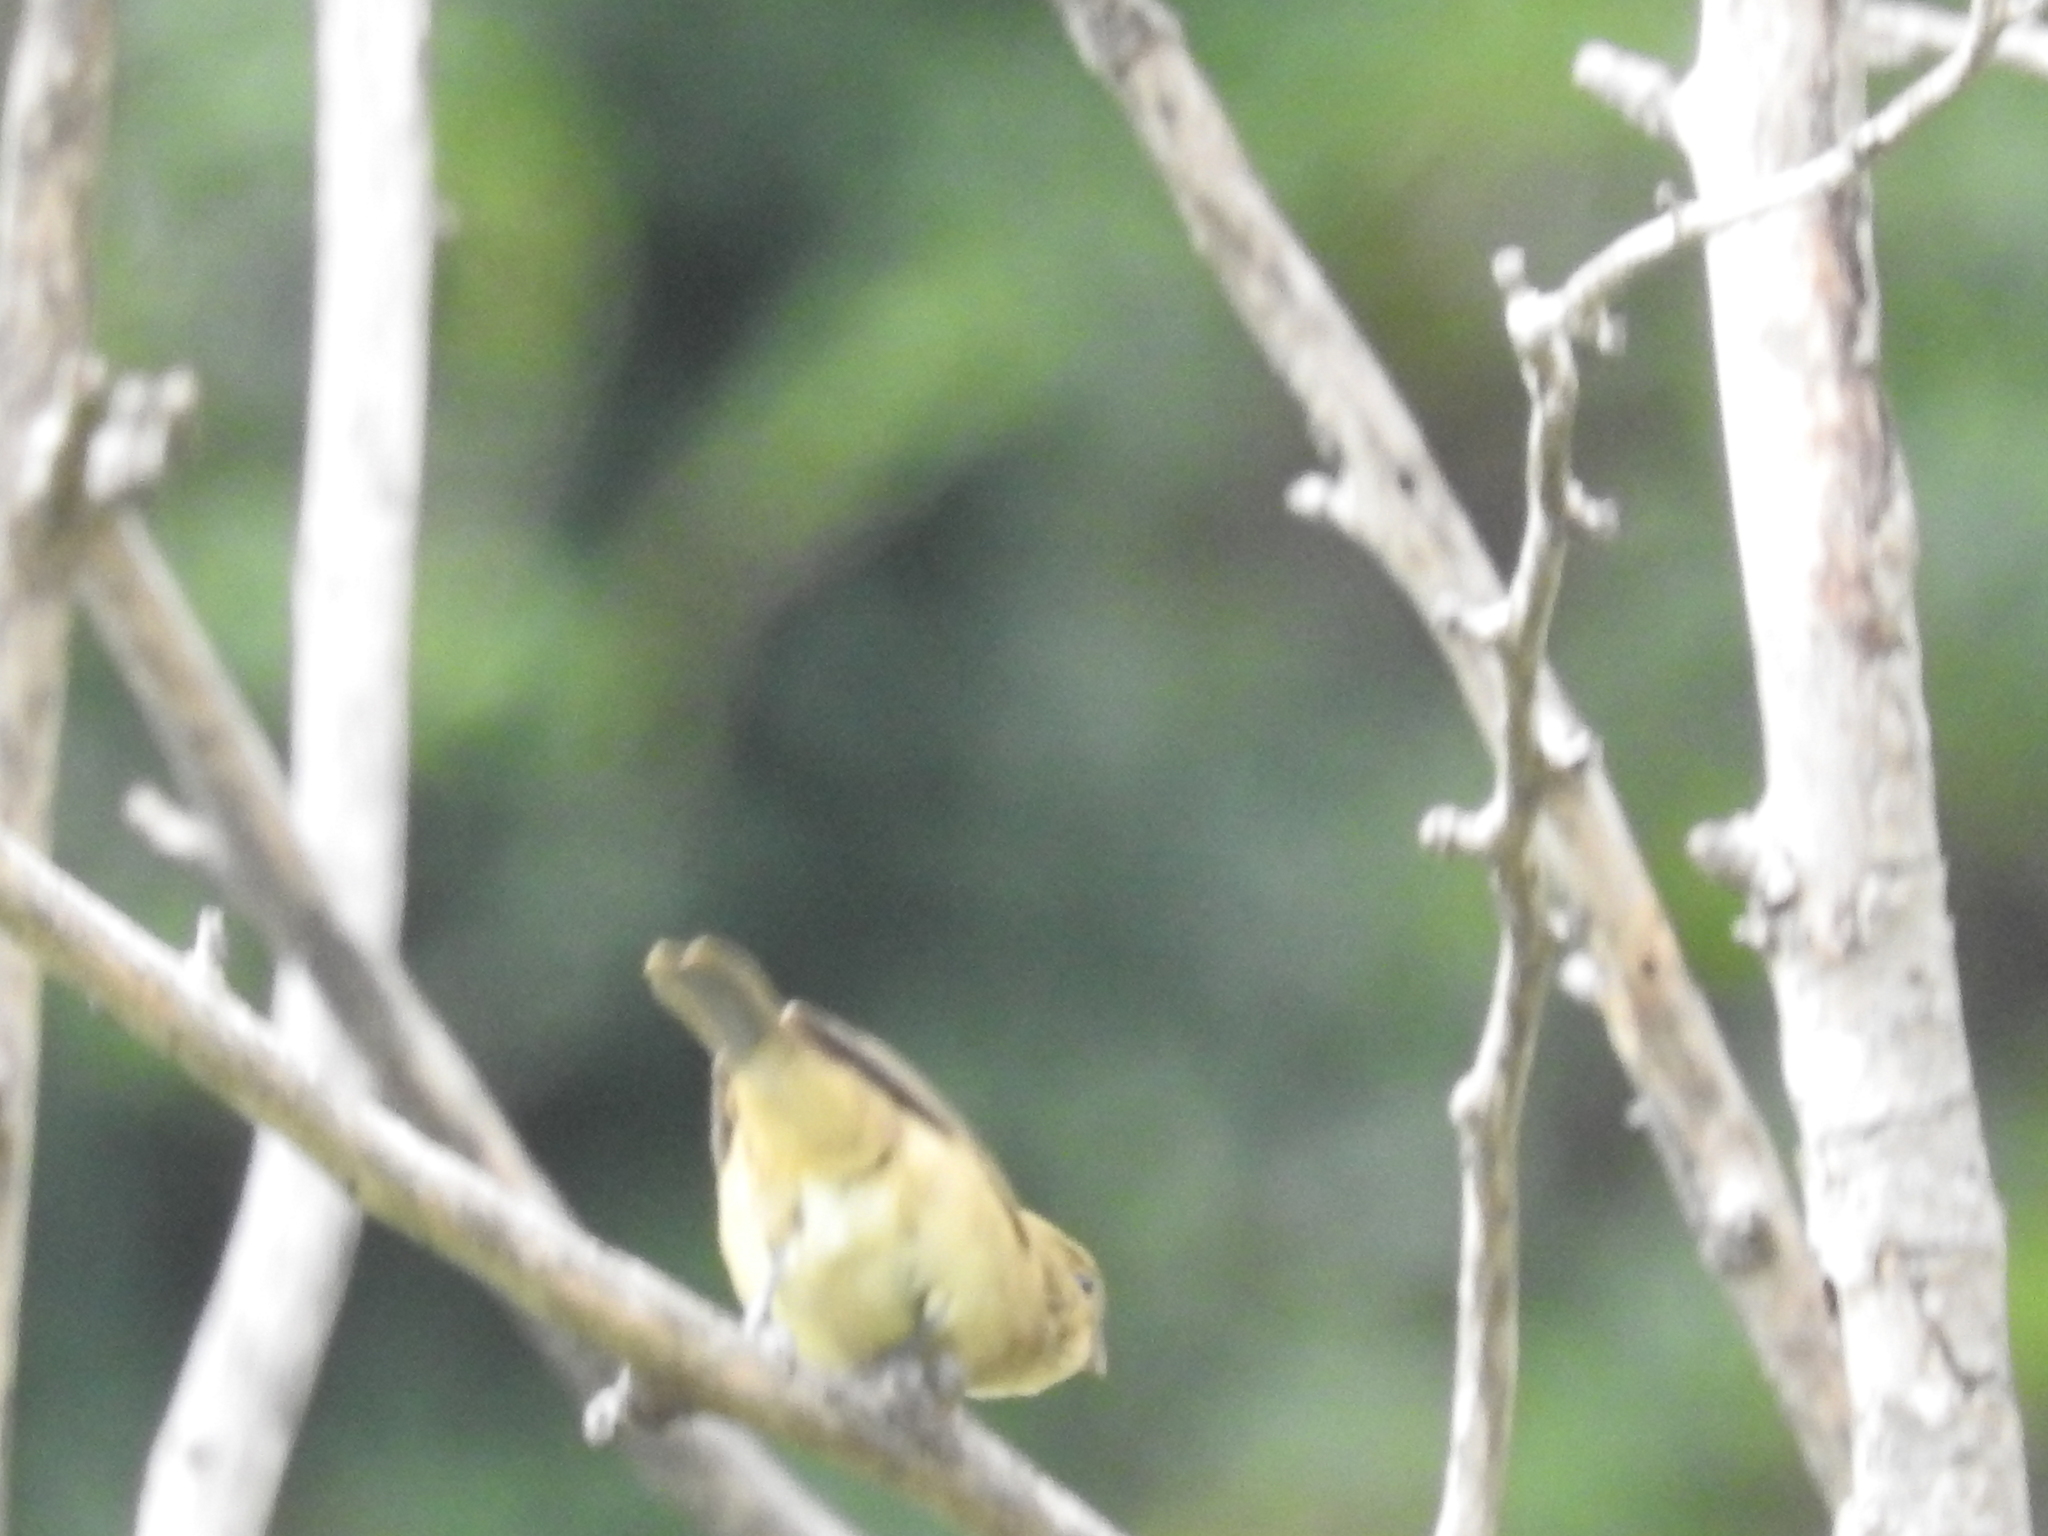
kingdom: Animalia
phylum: Chordata
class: Aves
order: Passeriformes
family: Thraupidae
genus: Sporophila
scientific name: Sporophila caerulescens
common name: Double-collared seedeater
